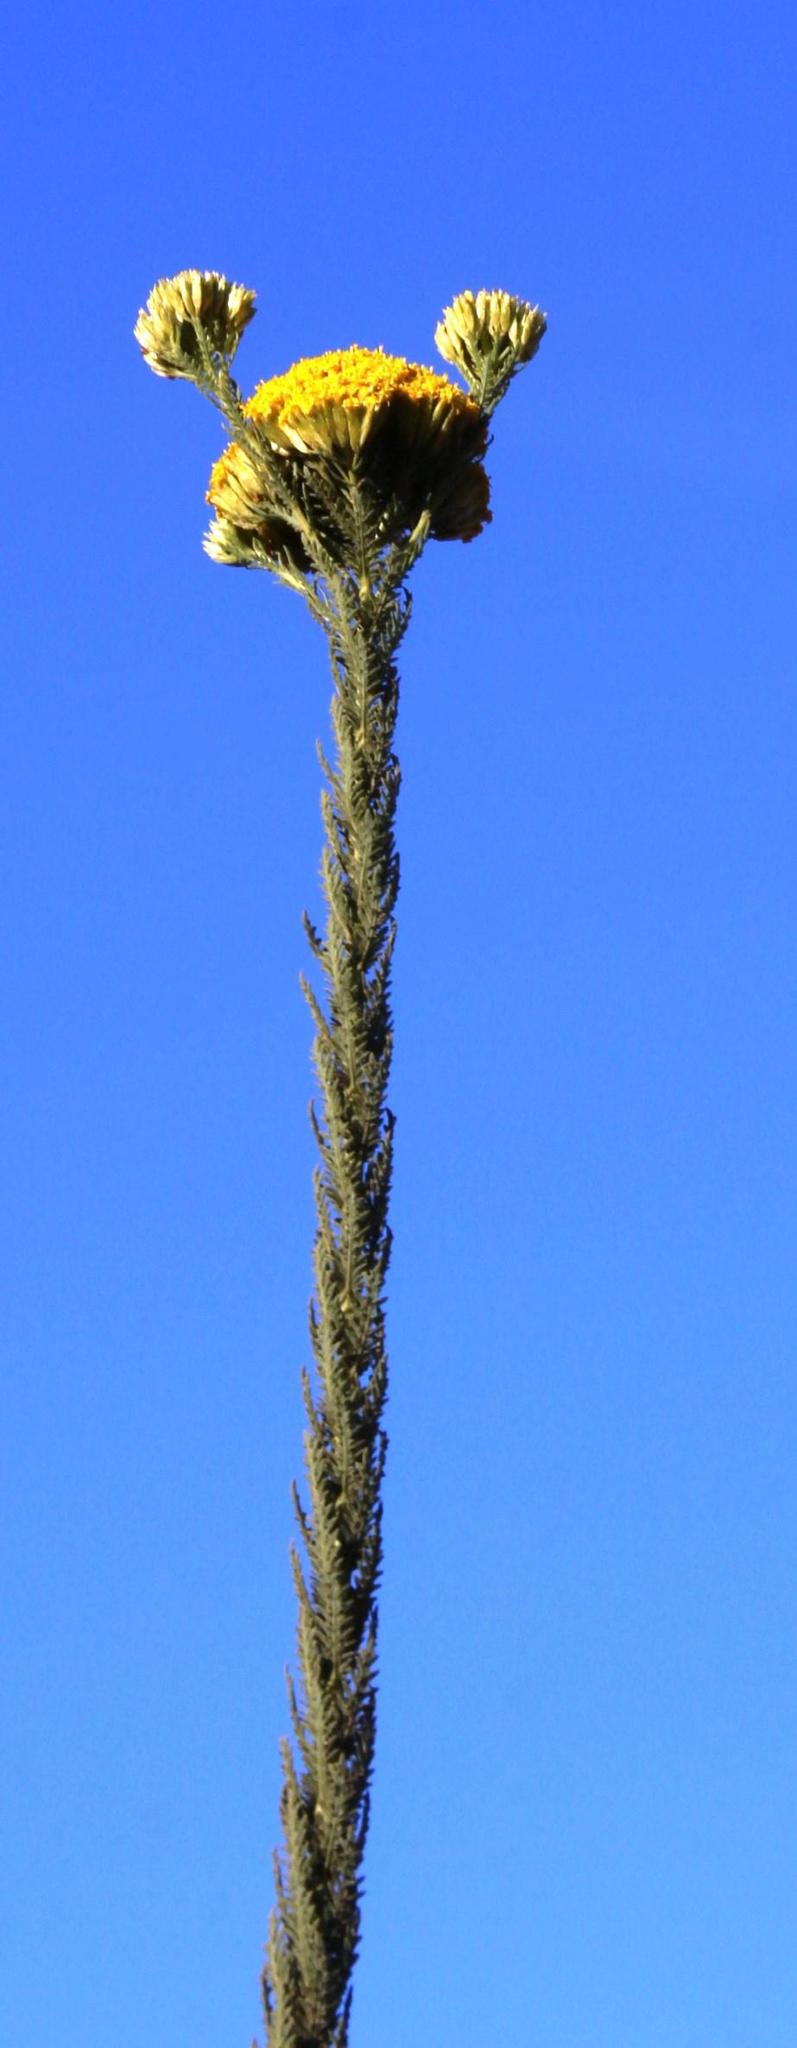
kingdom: Plantae
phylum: Tracheophyta
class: Magnoliopsida
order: Asterales
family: Asteraceae
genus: Hymenolepis
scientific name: Hymenolepis dentata
